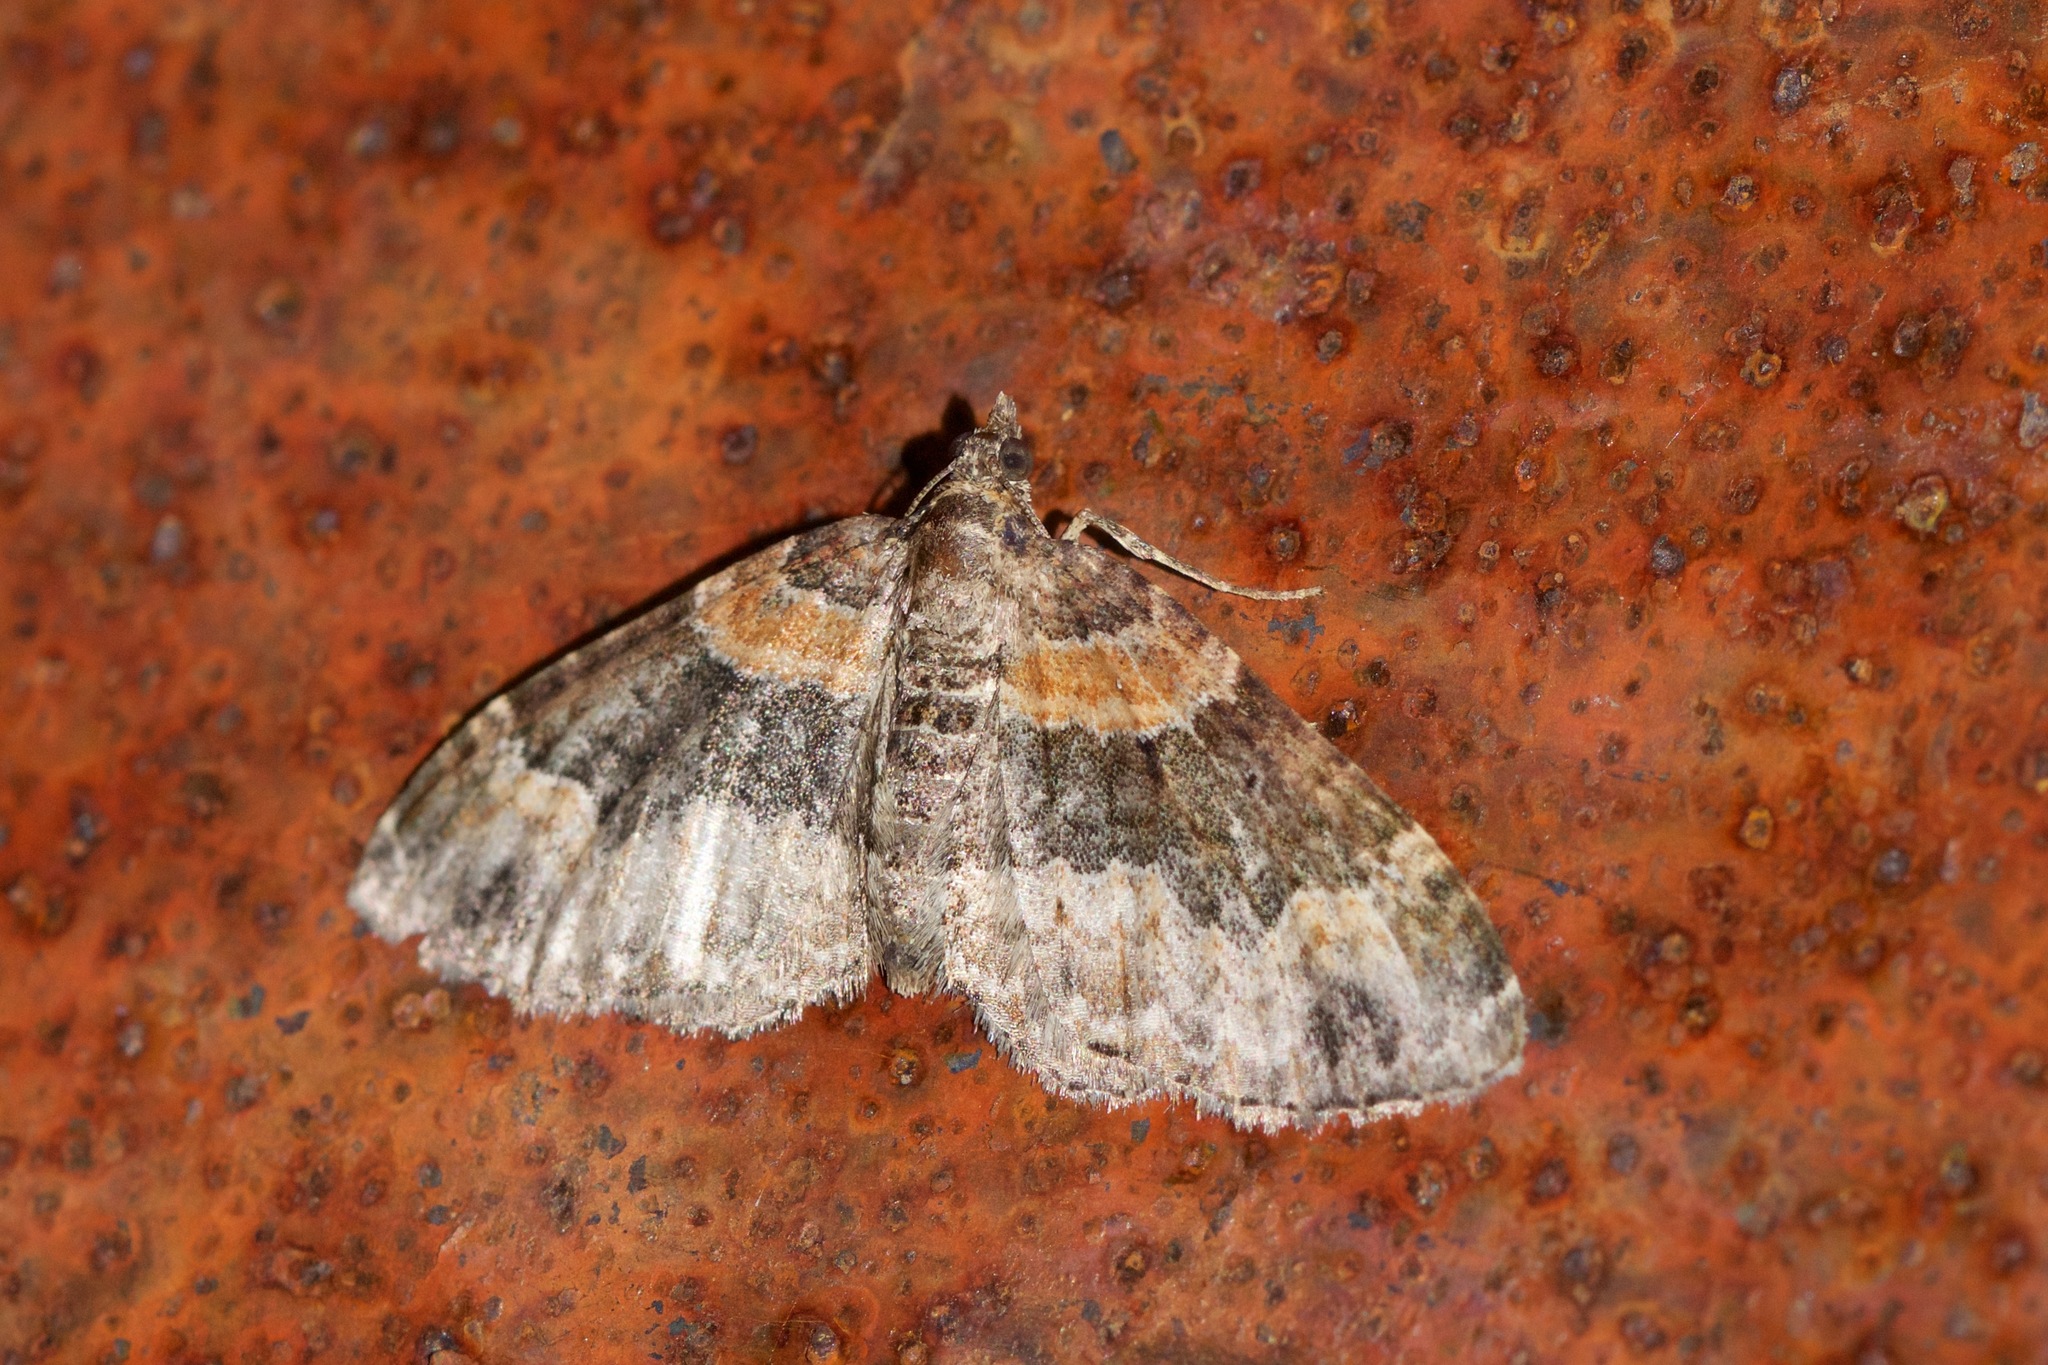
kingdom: Animalia
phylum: Arthropoda
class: Insecta
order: Lepidoptera
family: Geometridae
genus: Xanthorhoe
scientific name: Xanthorhoe ferrugata
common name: Dark-barred twin-spot carpet
